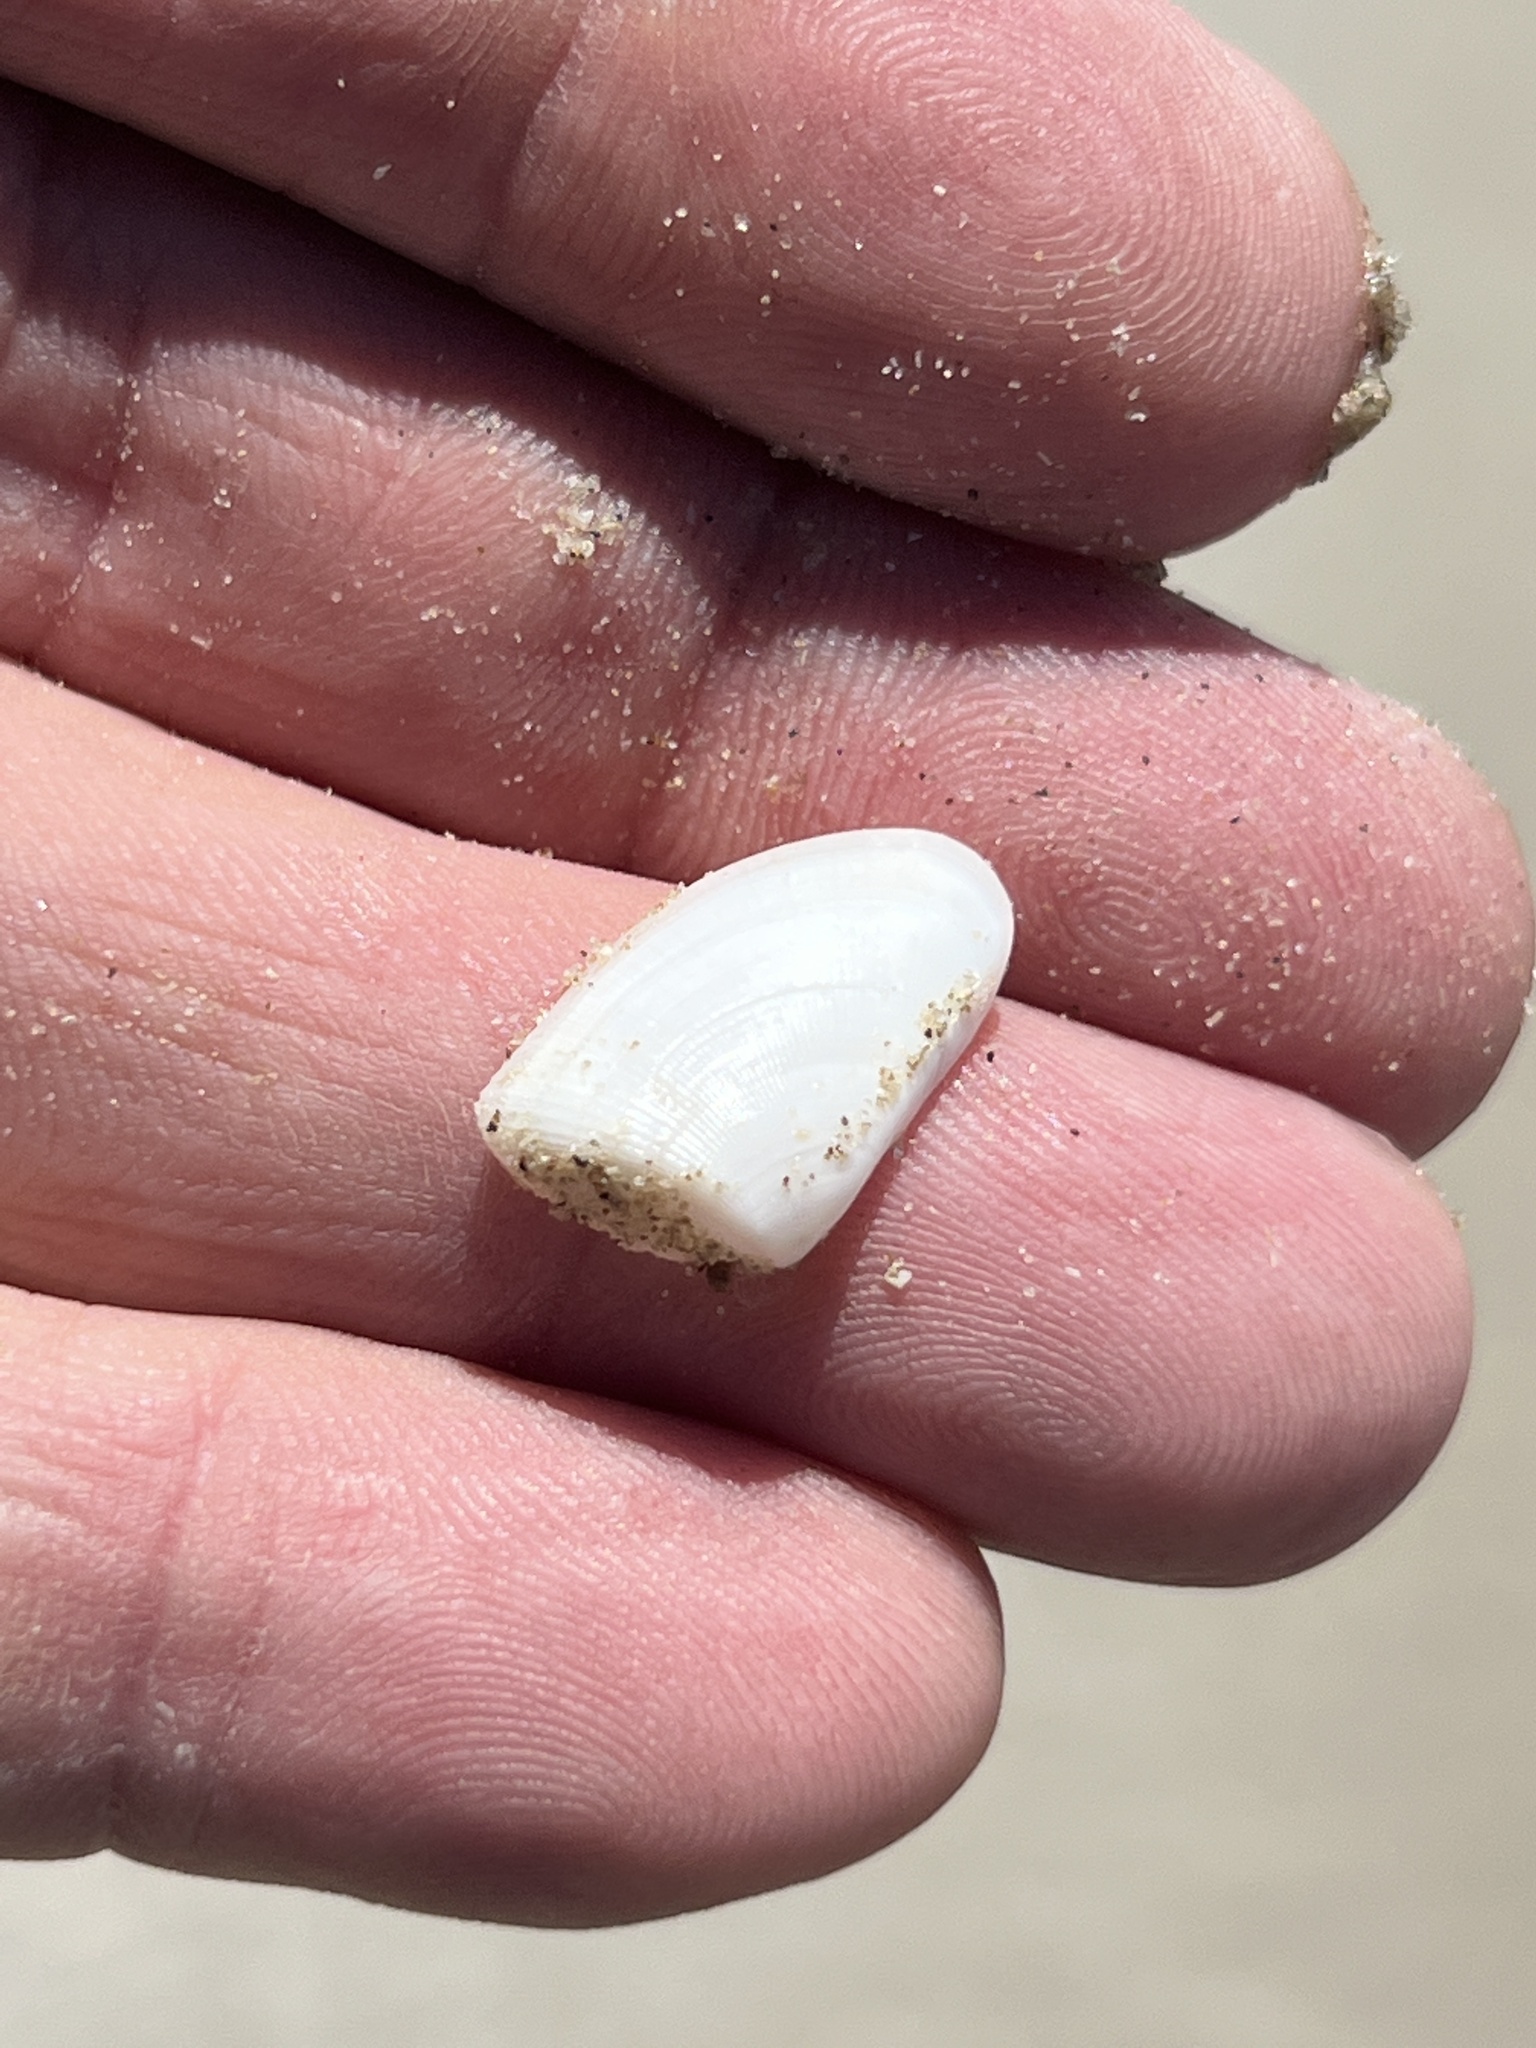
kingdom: Animalia
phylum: Mollusca
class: Bivalvia
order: Cardiida
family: Donacidae
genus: Donax
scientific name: Donax variabilis
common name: Butterfly shell
